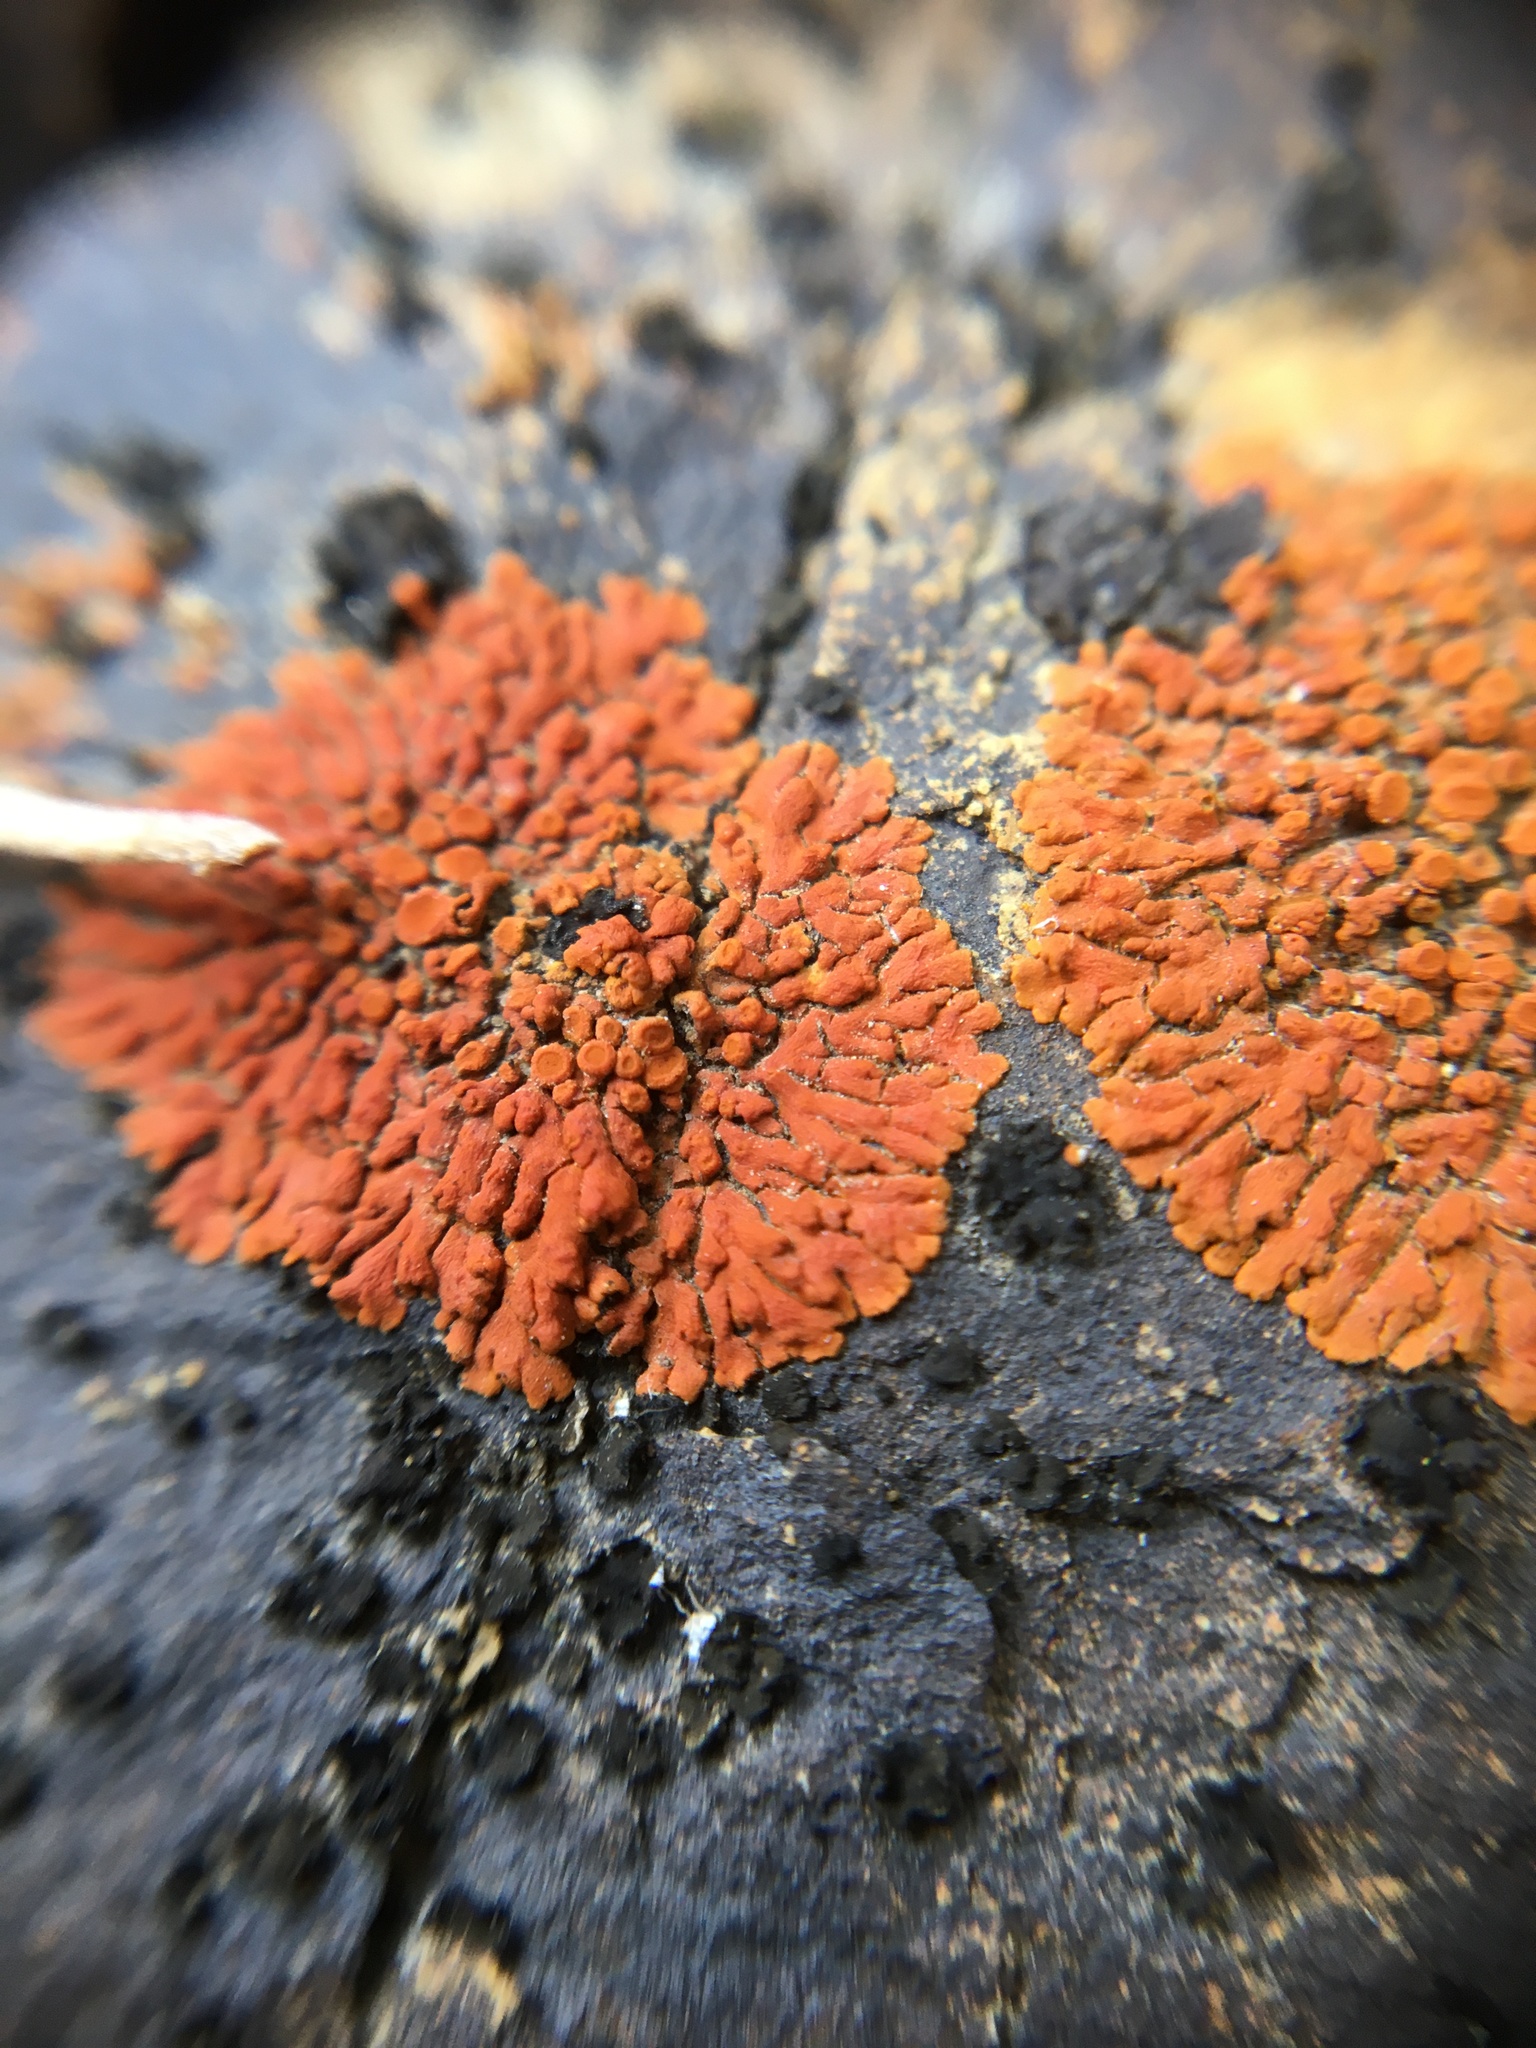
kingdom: Fungi
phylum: Ascomycota
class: Lecanoromycetes
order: Teloschistales
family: Teloschistaceae
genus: Igneoplaca
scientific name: Igneoplaca ignea
